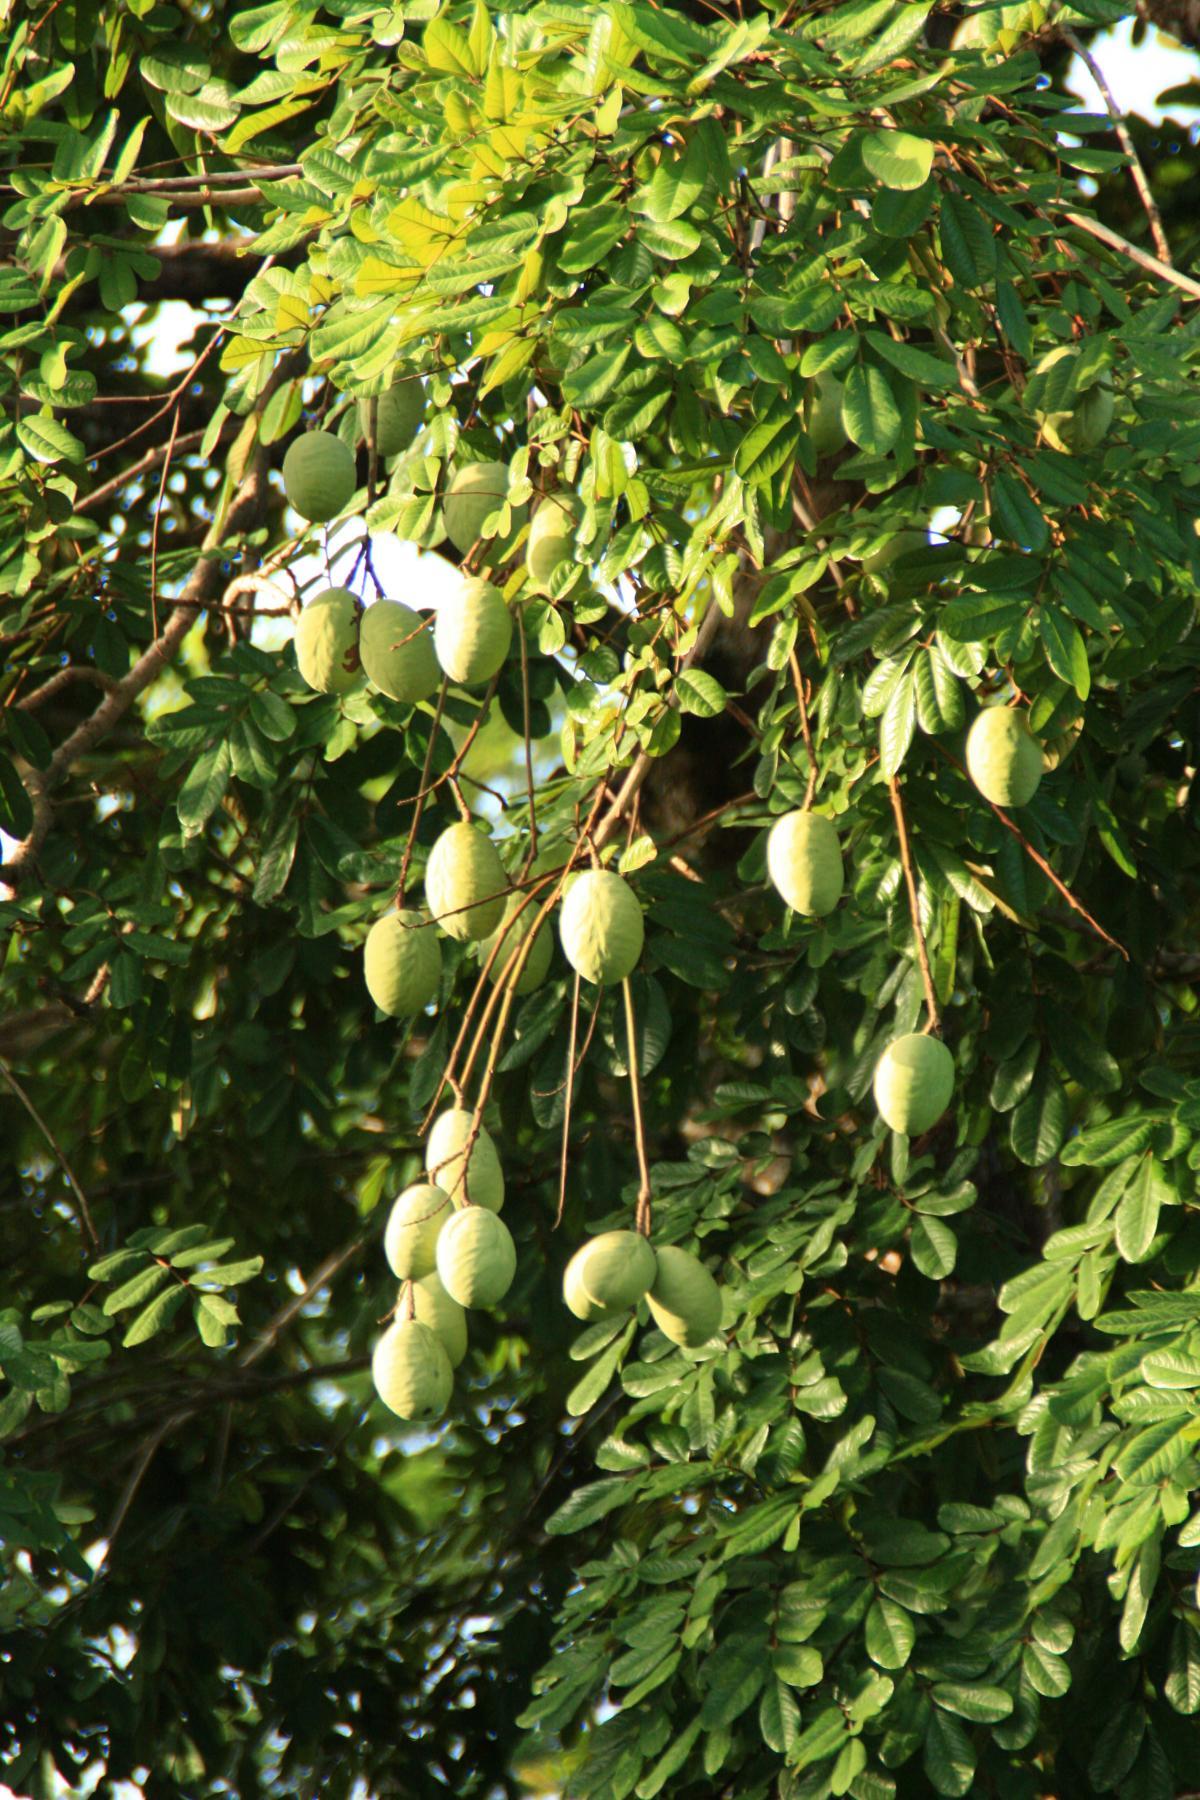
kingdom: Plantae
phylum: Tracheophyta
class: Magnoliopsida
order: Fabales
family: Fabaceae
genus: Andira
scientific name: Andira inermis
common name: Angelin
